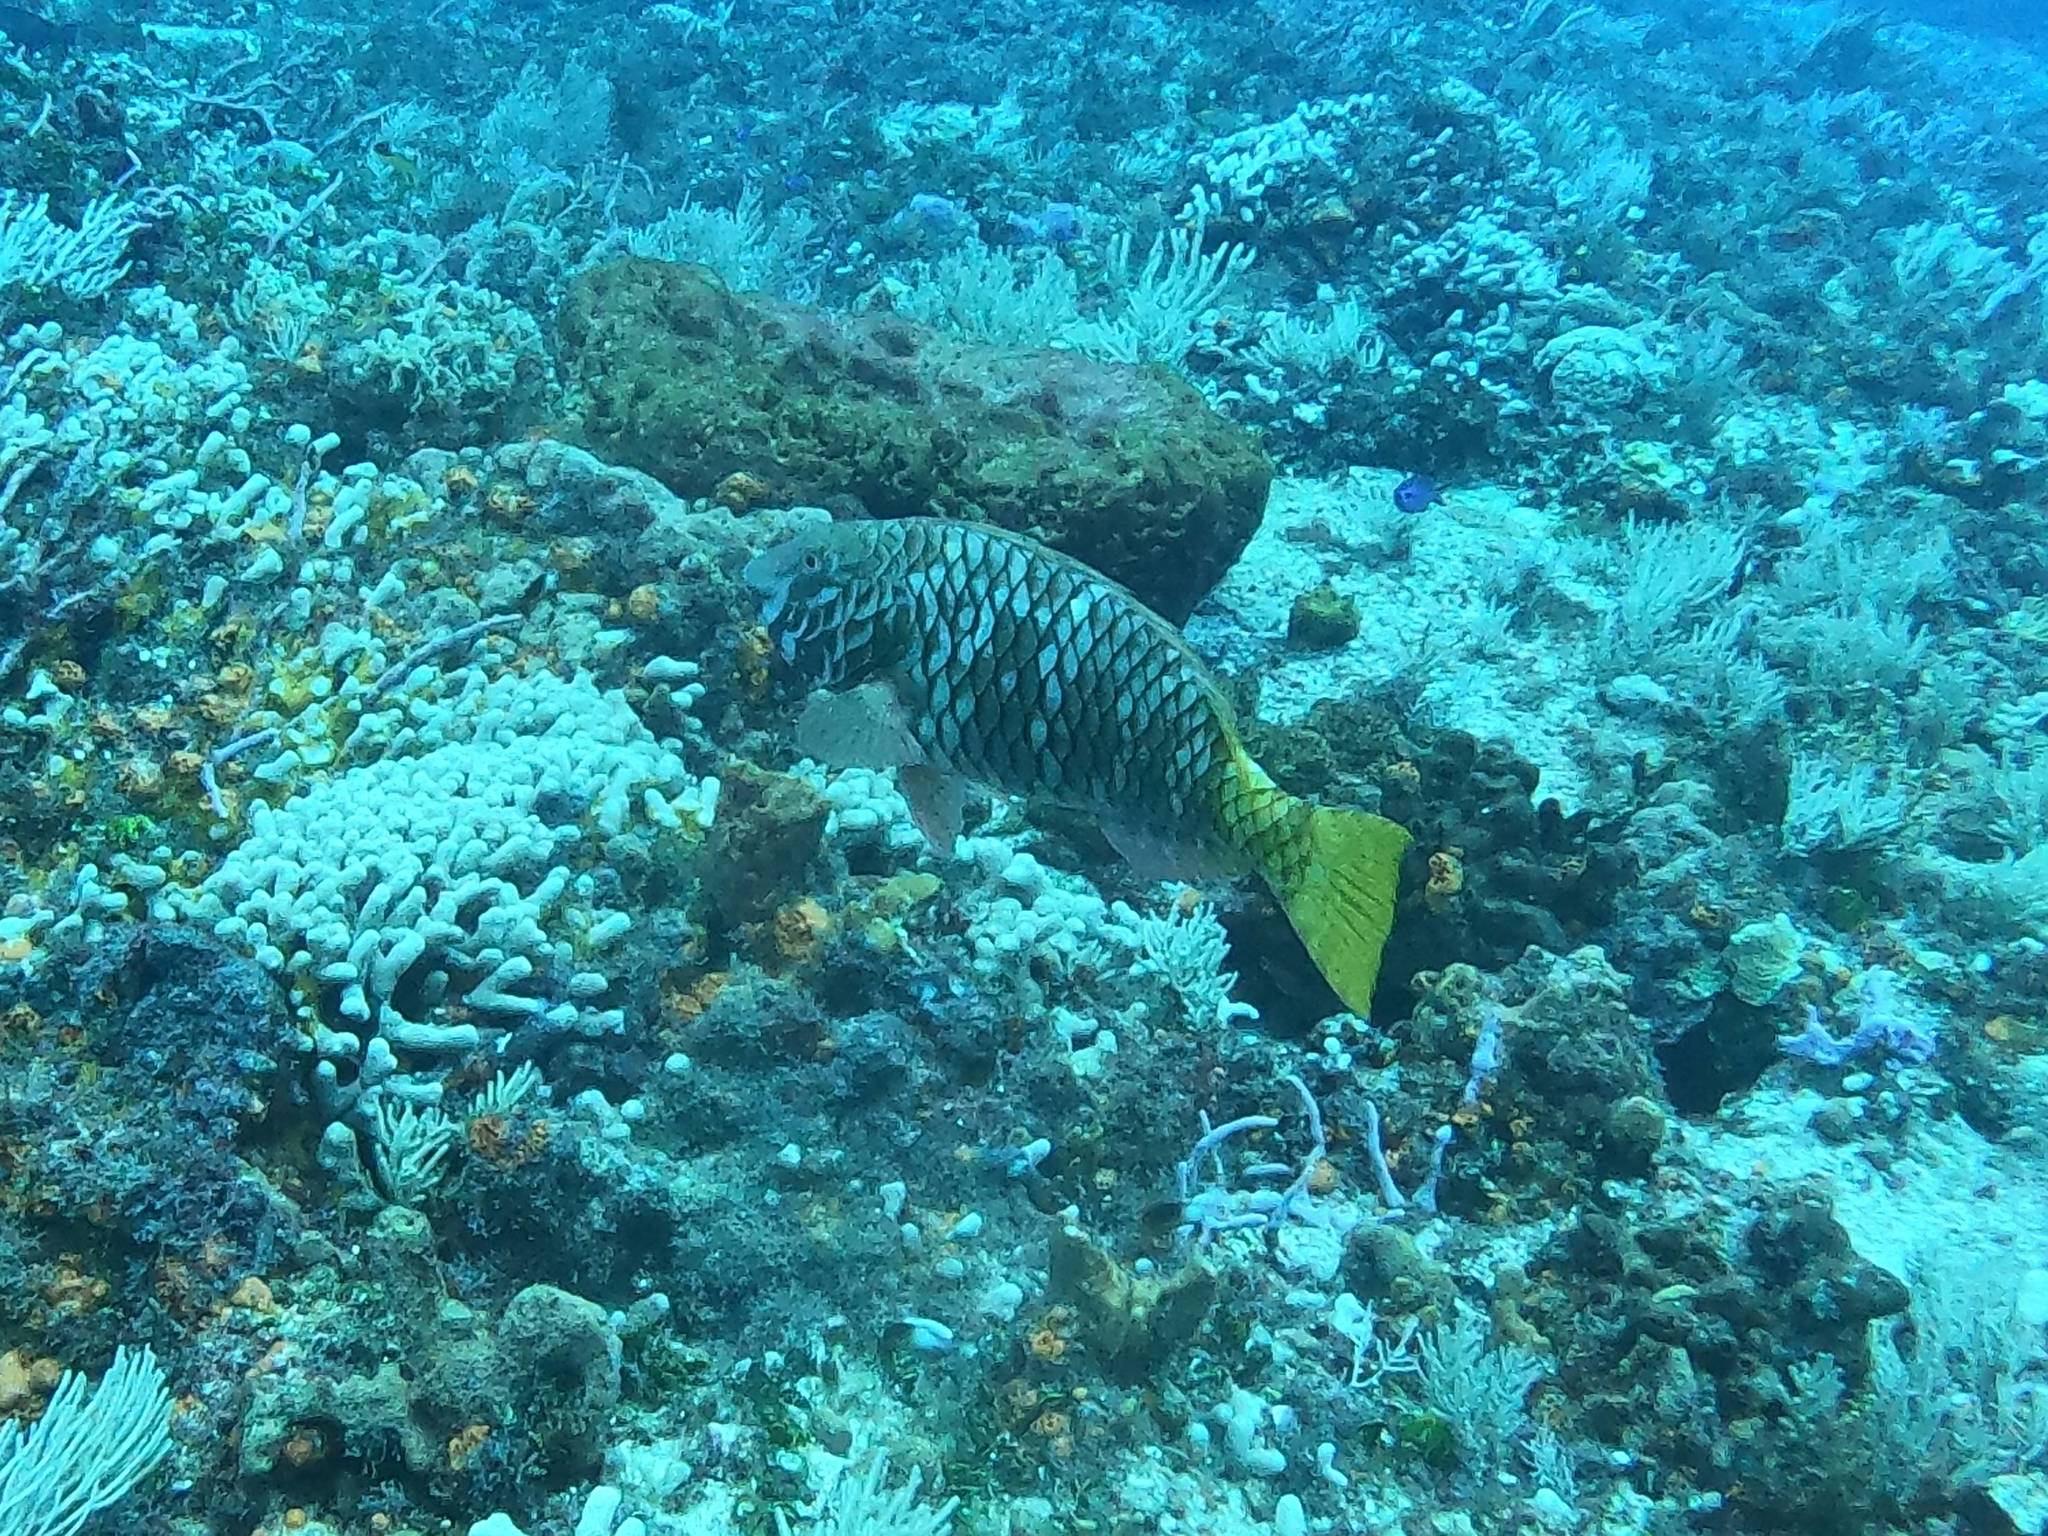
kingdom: Animalia
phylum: Chordata
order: Perciformes
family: Scaridae
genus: Sparisoma
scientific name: Sparisoma rubripinne
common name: Redfin parrotfish
